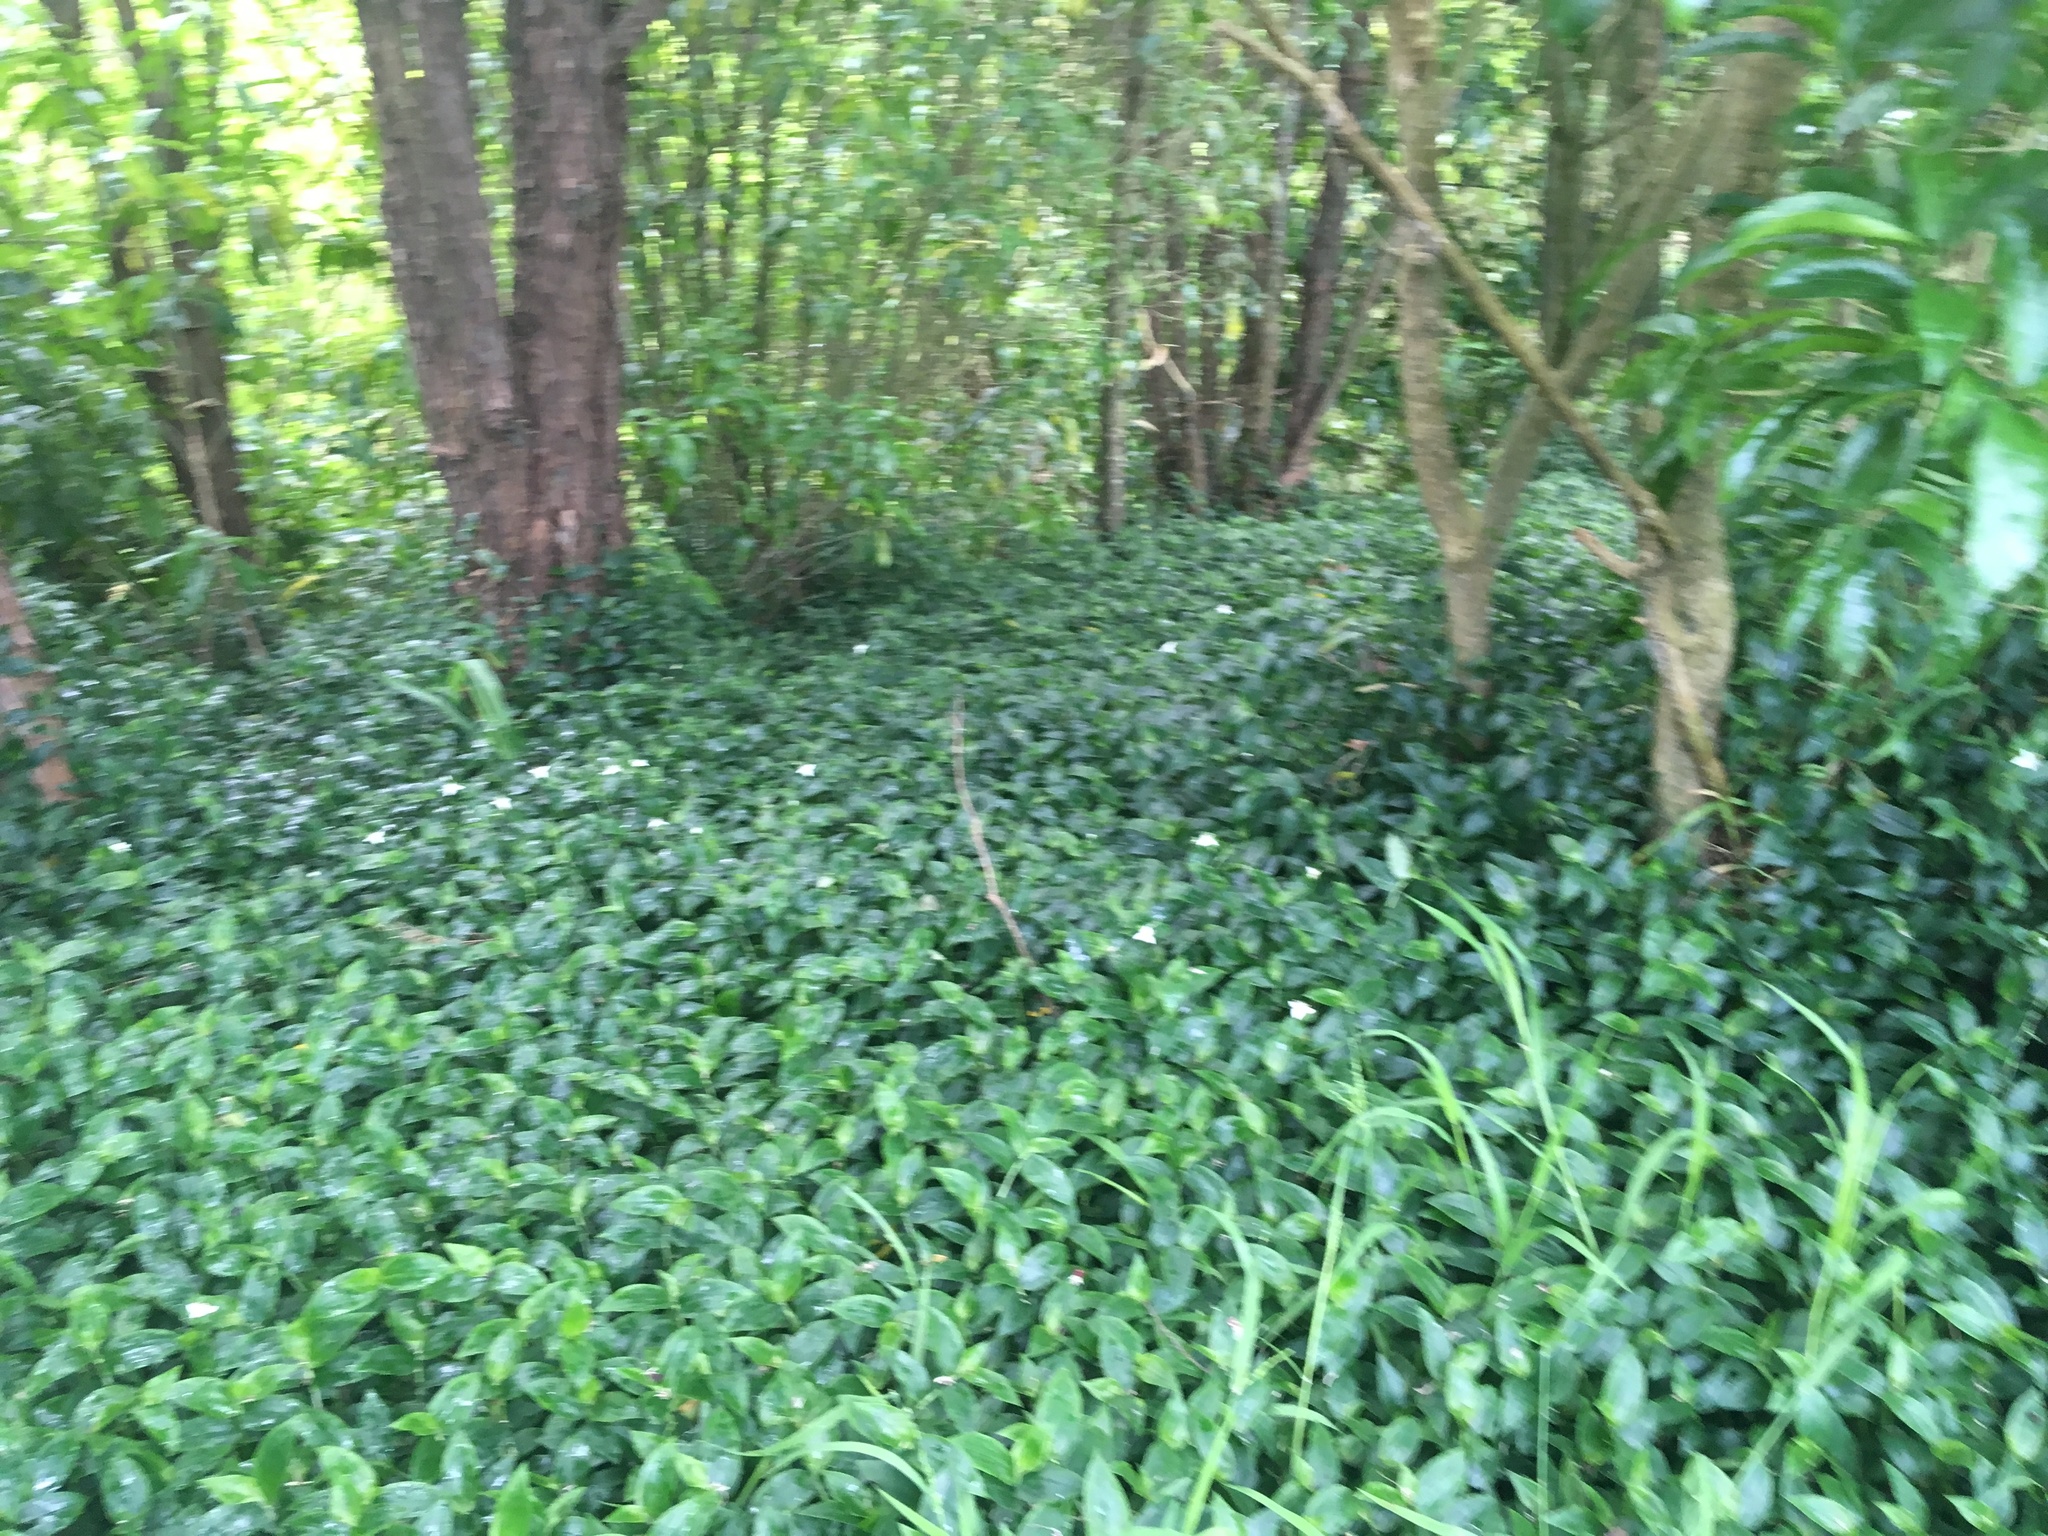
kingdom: Plantae
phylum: Tracheophyta
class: Liliopsida
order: Commelinales
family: Commelinaceae
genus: Tradescantia
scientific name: Tradescantia fluminensis
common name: Wandering-jew
